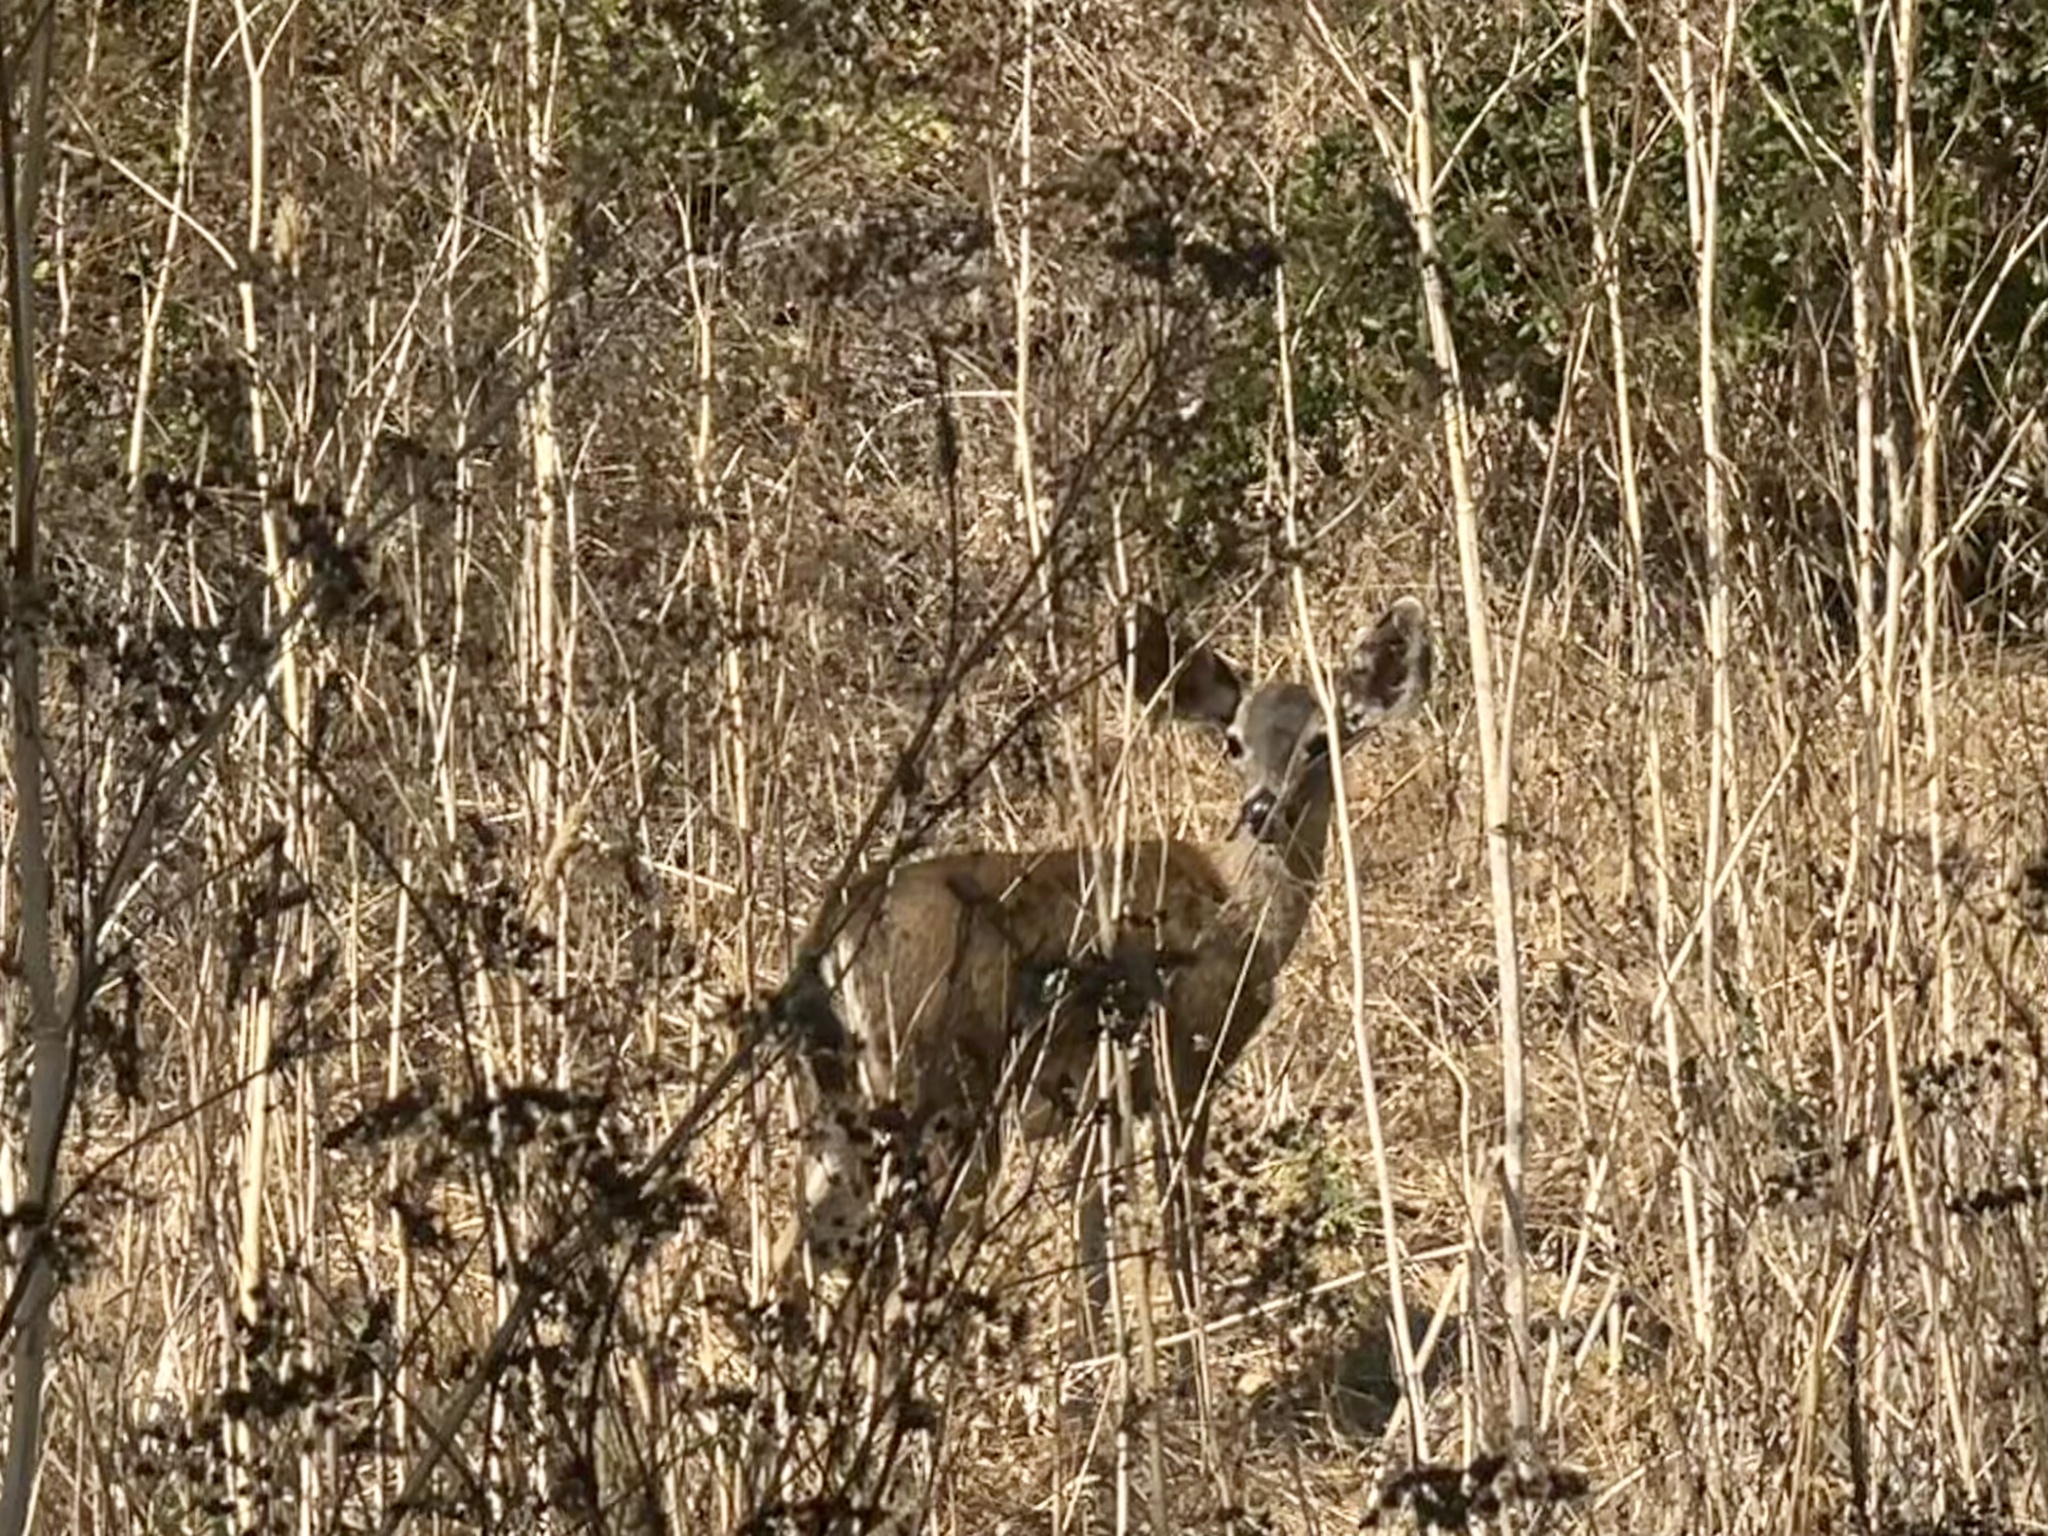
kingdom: Animalia
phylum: Chordata
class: Mammalia
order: Artiodactyla
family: Cervidae
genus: Odocoileus
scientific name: Odocoileus hemionus
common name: Mule deer
